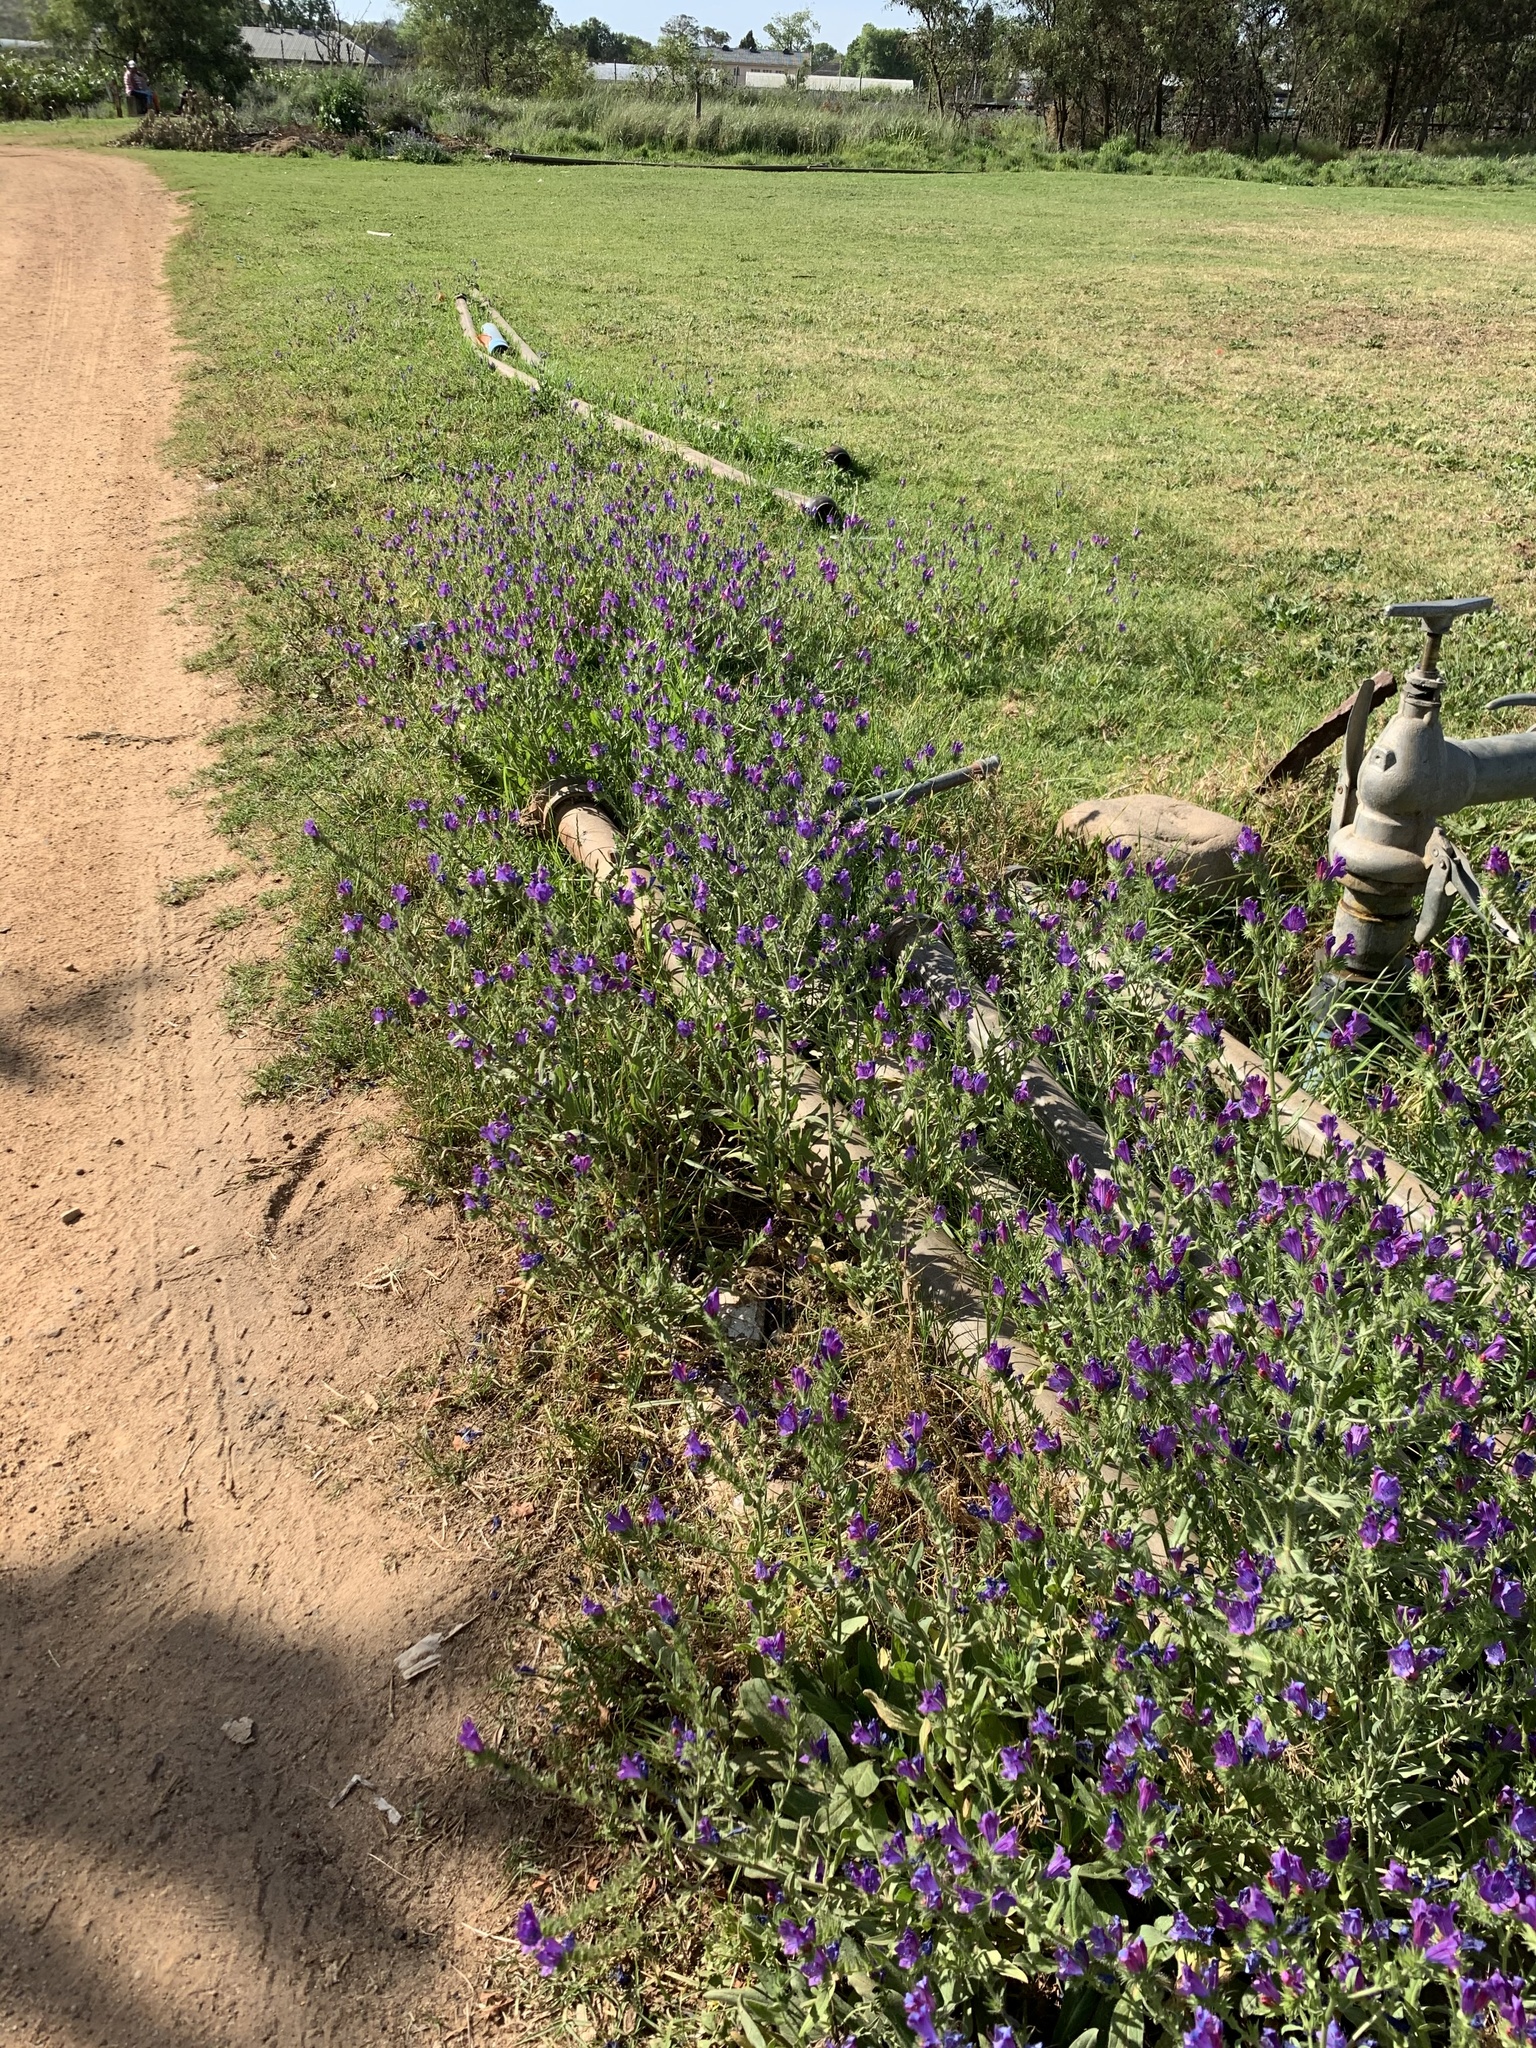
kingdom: Plantae
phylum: Tracheophyta
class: Magnoliopsida
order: Boraginales
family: Boraginaceae
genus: Echium
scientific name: Echium plantagineum
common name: Purple viper's-bugloss
